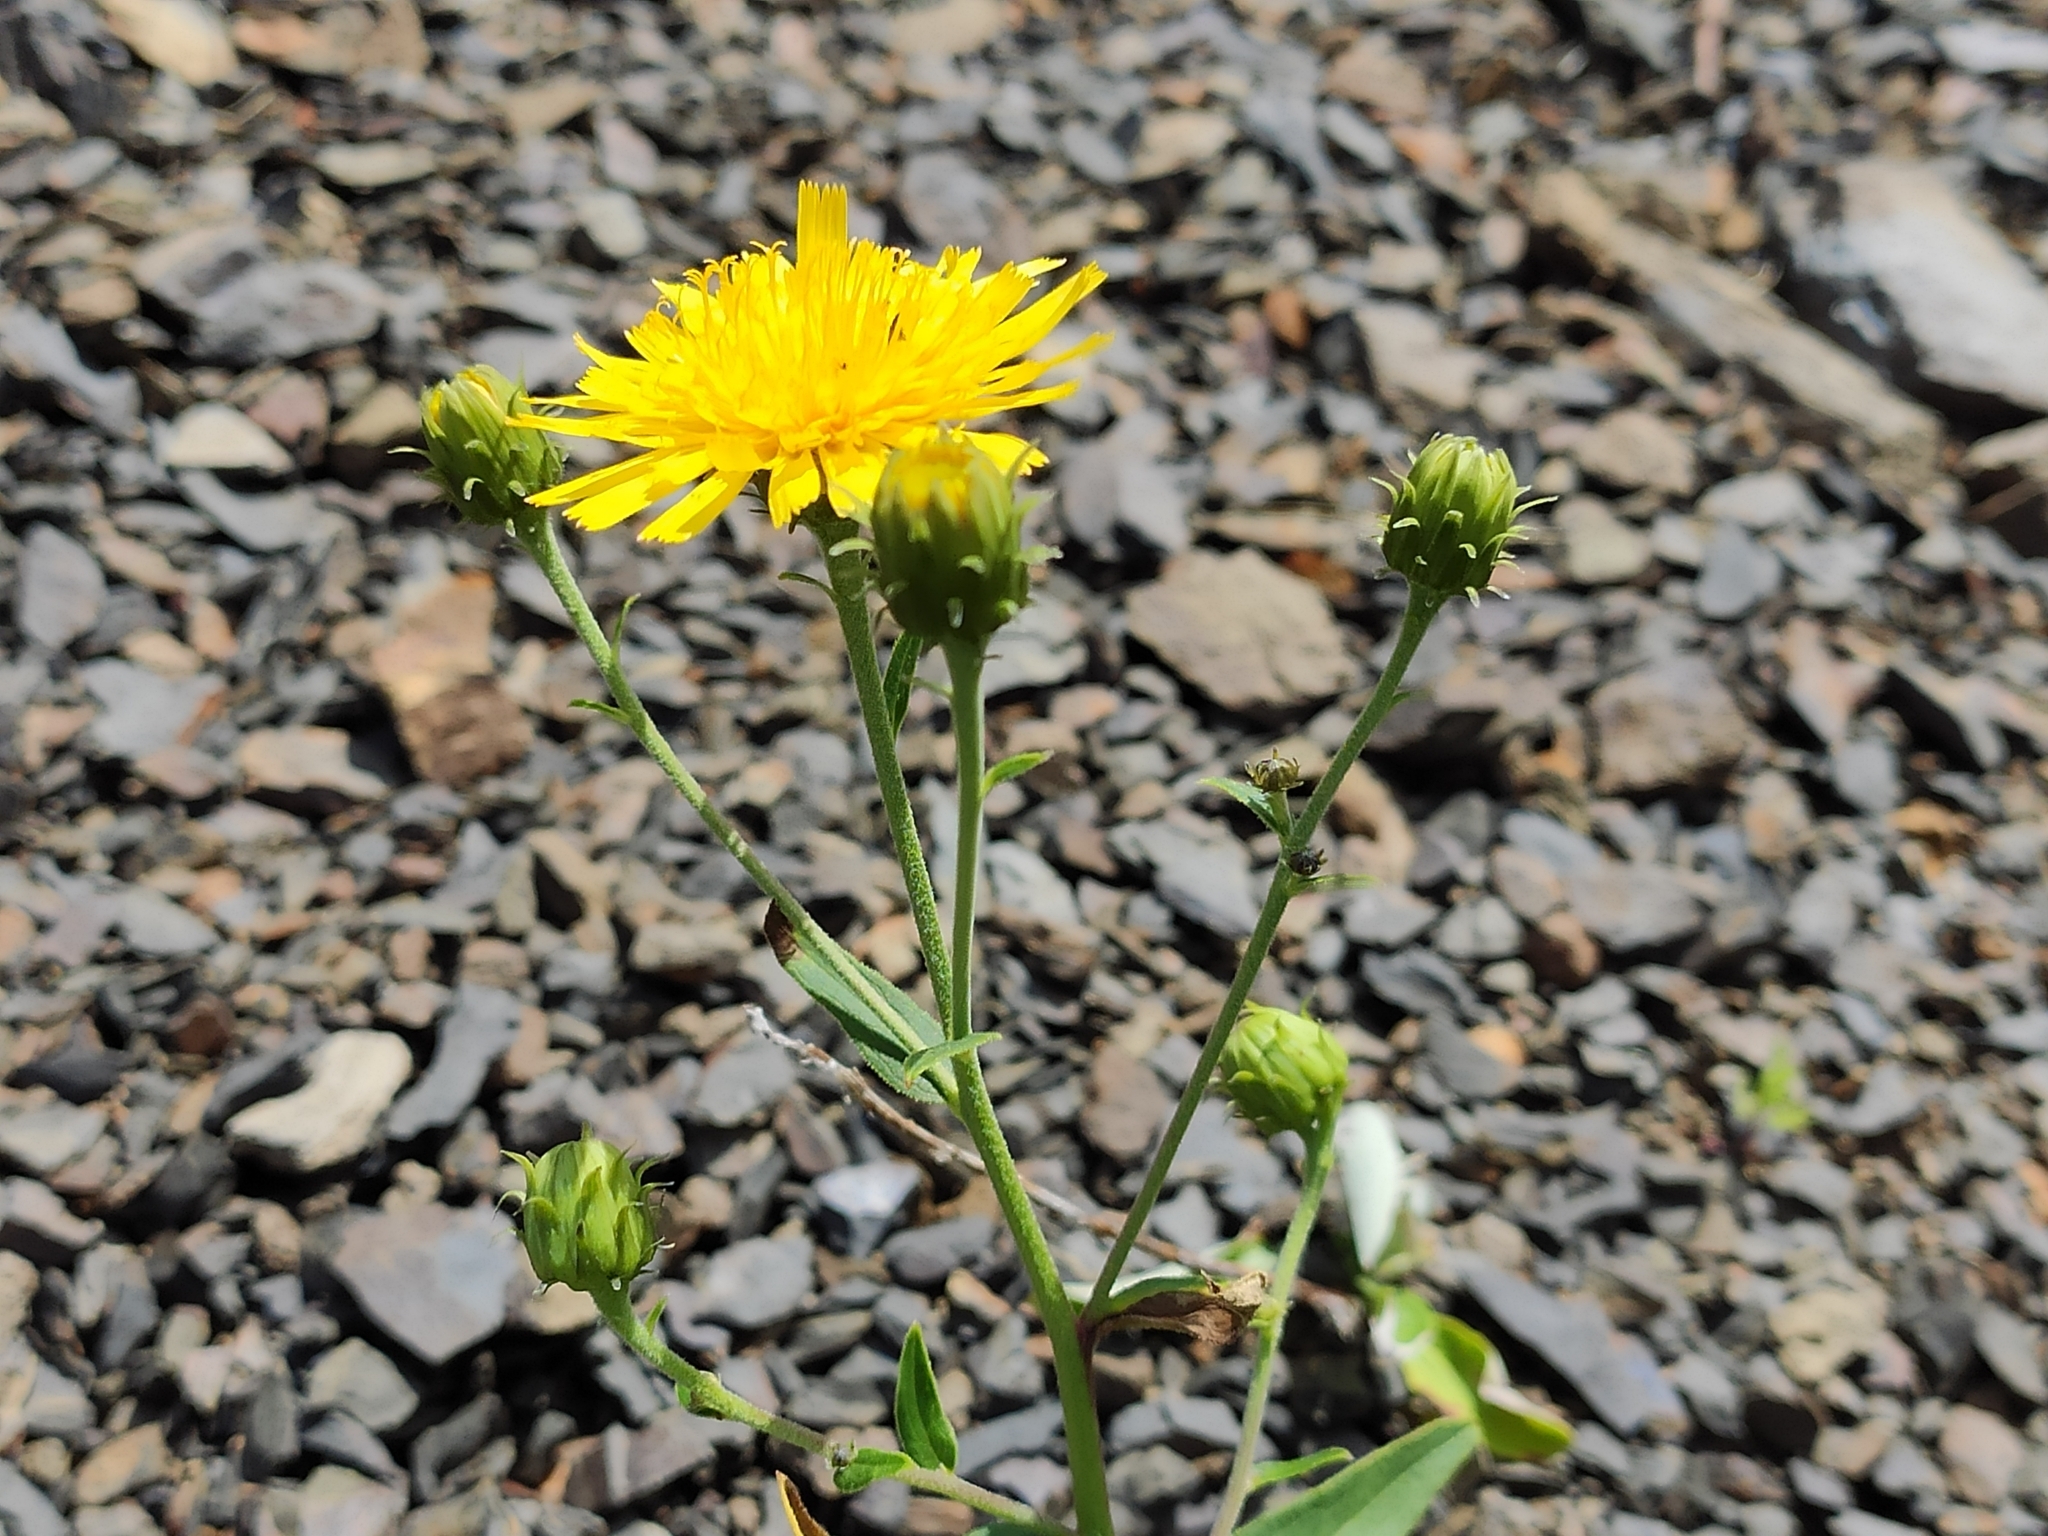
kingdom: Plantae
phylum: Tracheophyta
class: Magnoliopsida
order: Asterales
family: Asteraceae
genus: Hieracium
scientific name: Hieracium umbellatum
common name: Northern hawkweed
